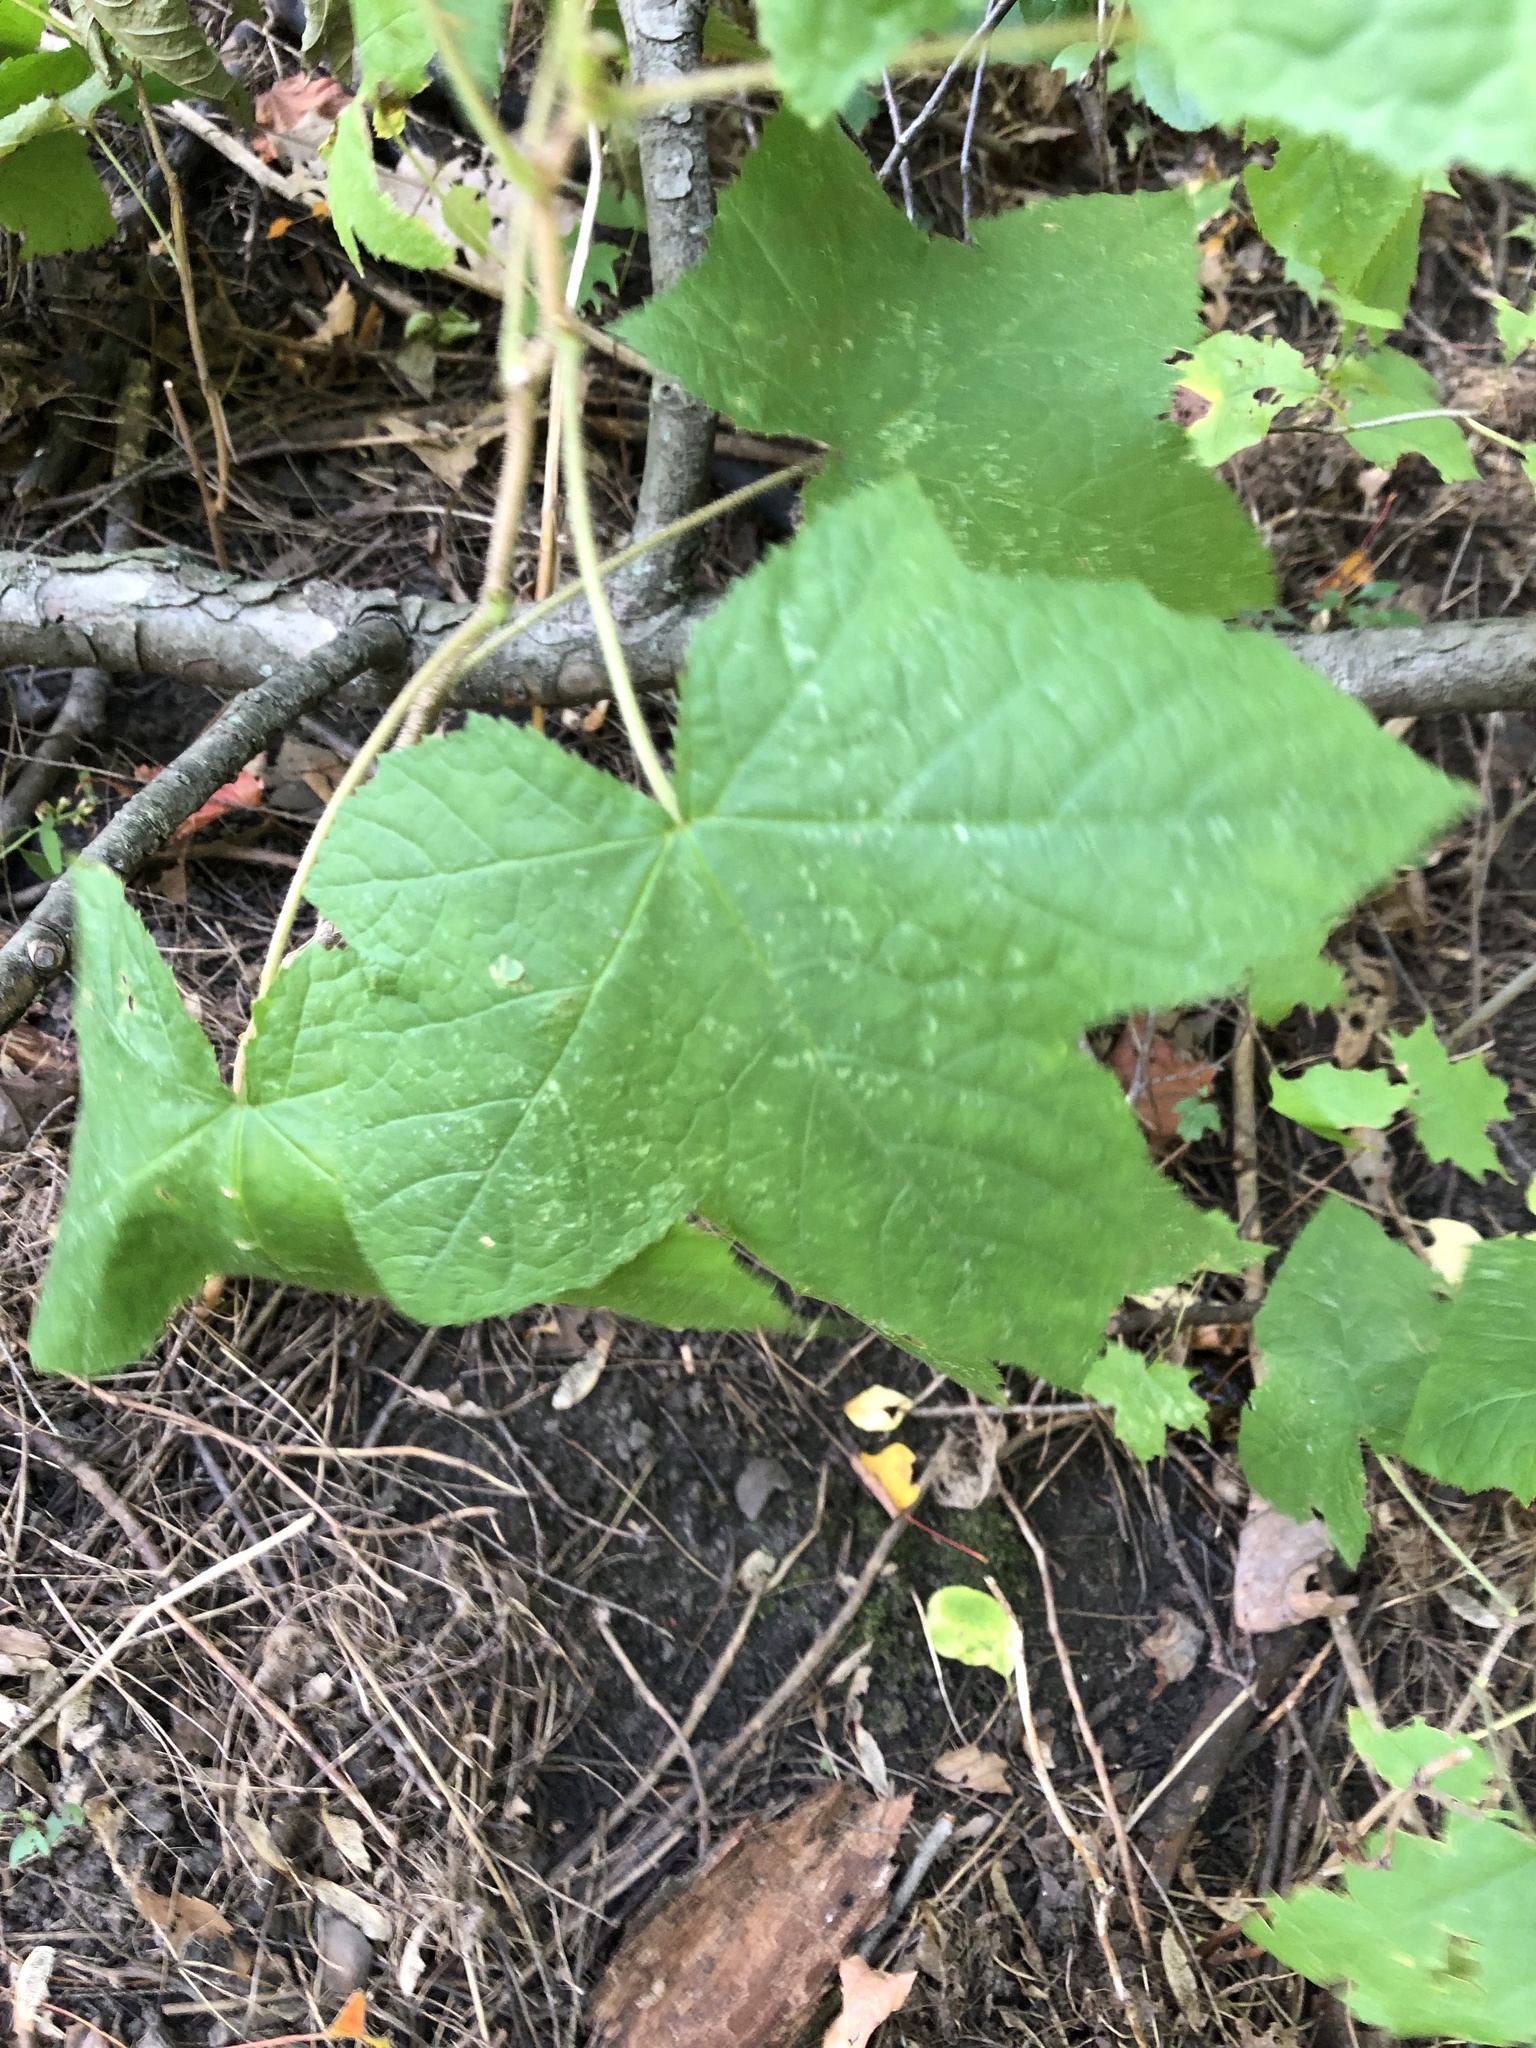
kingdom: Plantae
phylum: Tracheophyta
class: Magnoliopsida
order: Rosales
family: Rosaceae
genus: Rubus
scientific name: Rubus odoratus
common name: Purple-flowered raspberry
